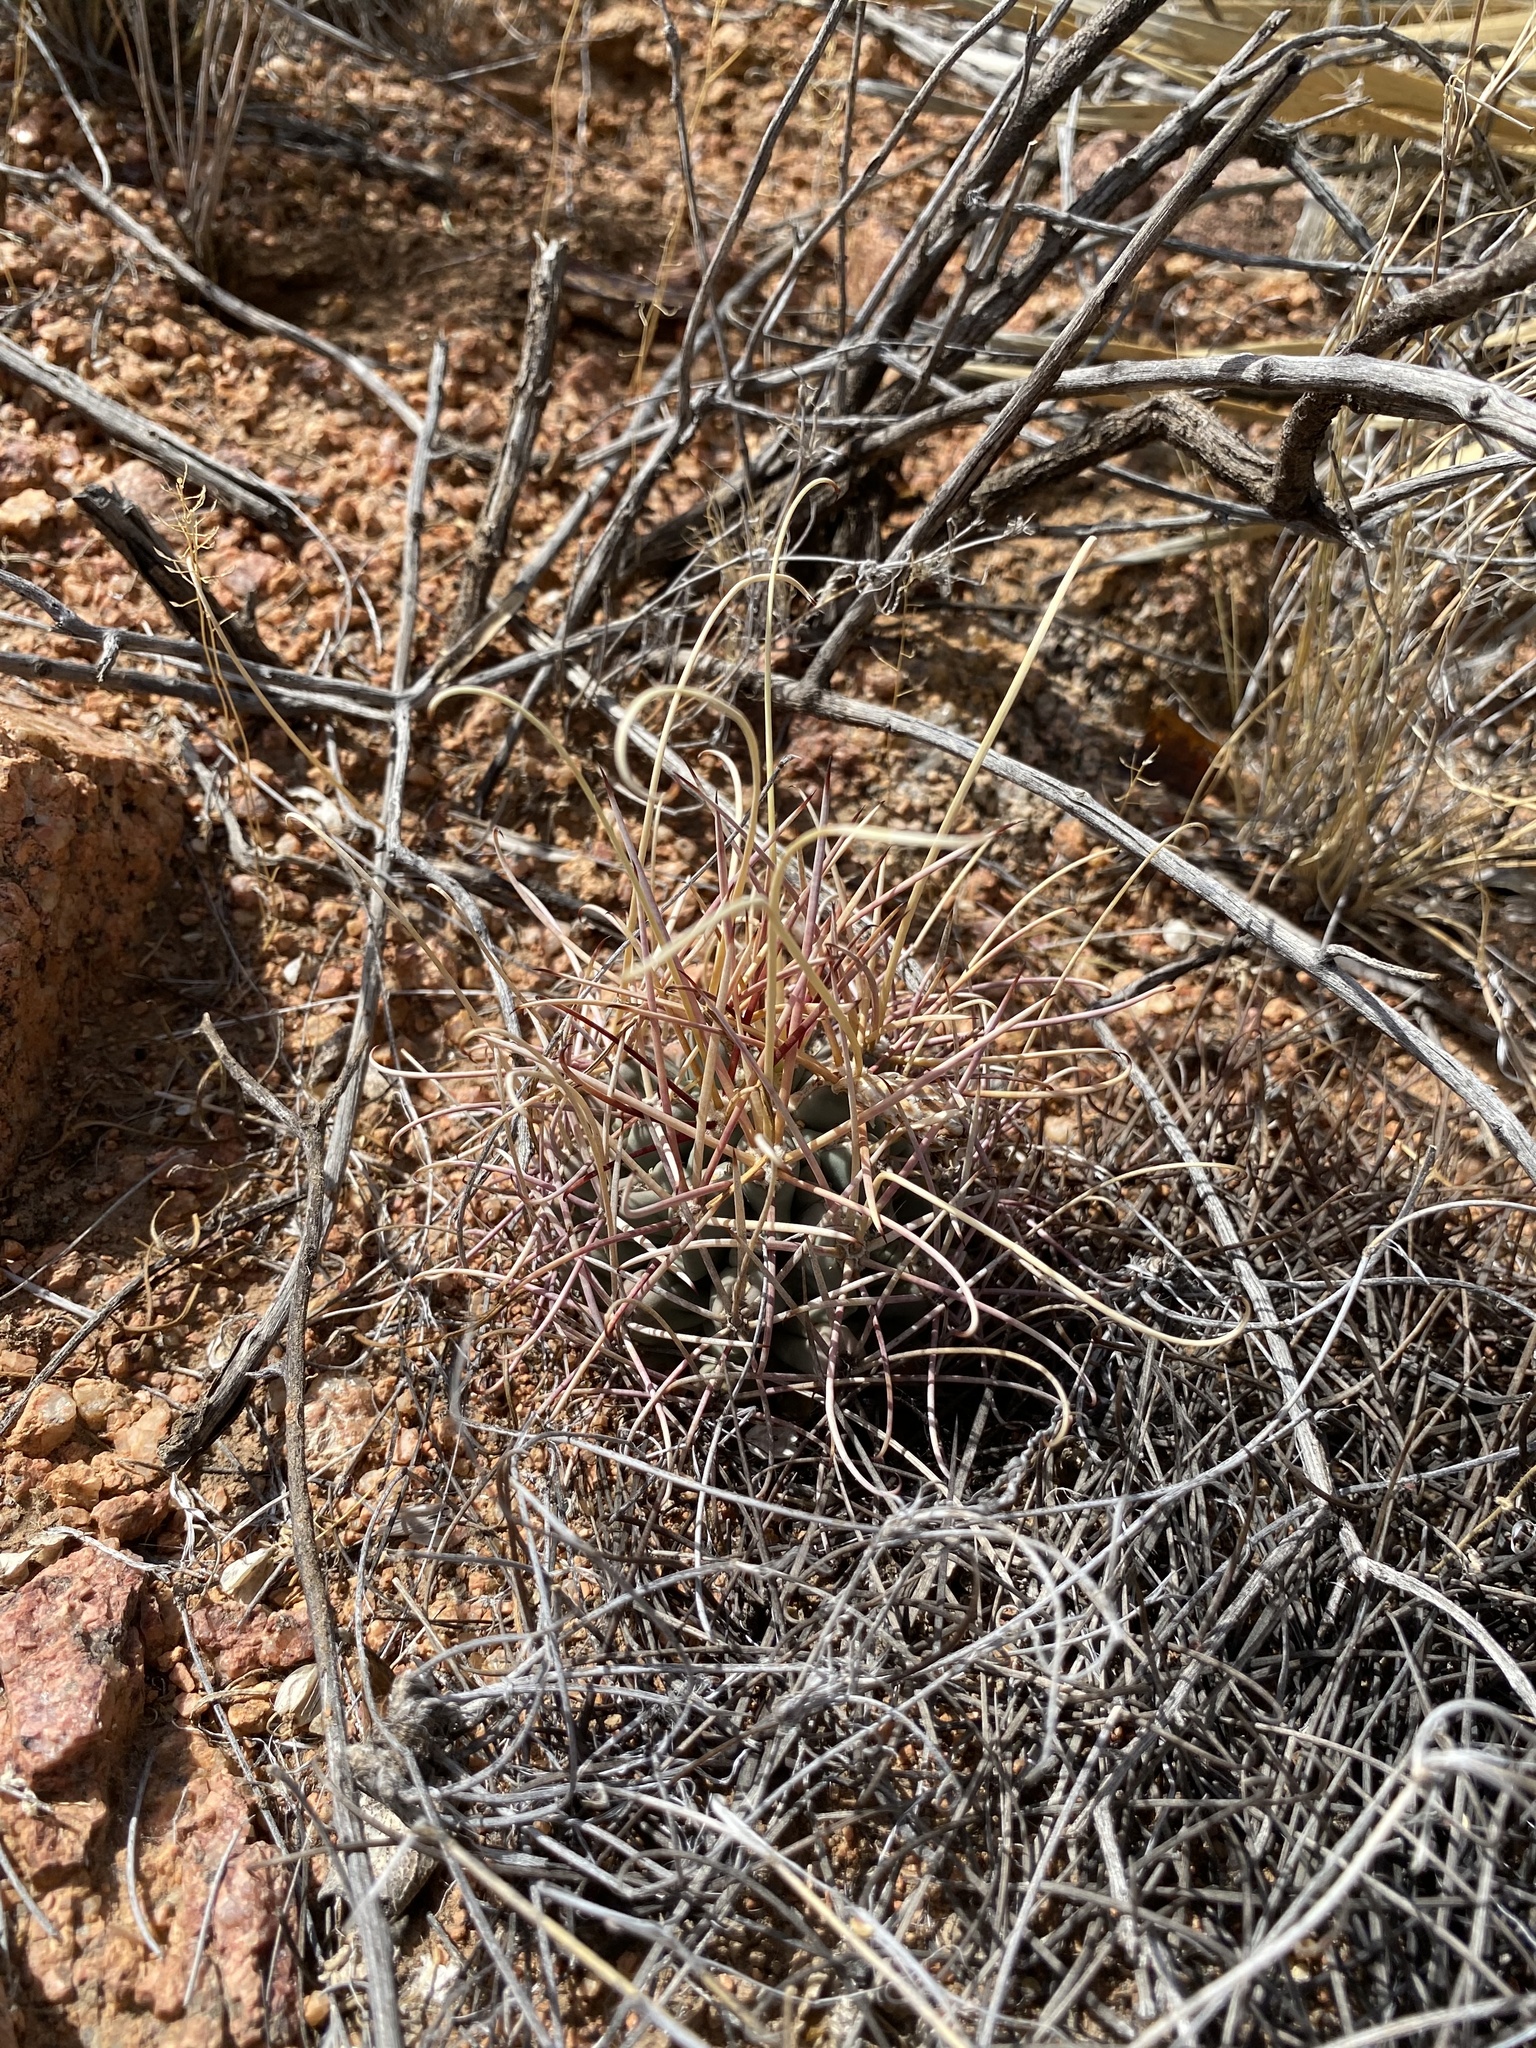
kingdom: Plantae
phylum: Tracheophyta
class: Magnoliopsida
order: Caryophyllales
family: Cactaceae
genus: Ferocactus
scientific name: Ferocactus uncinatus
